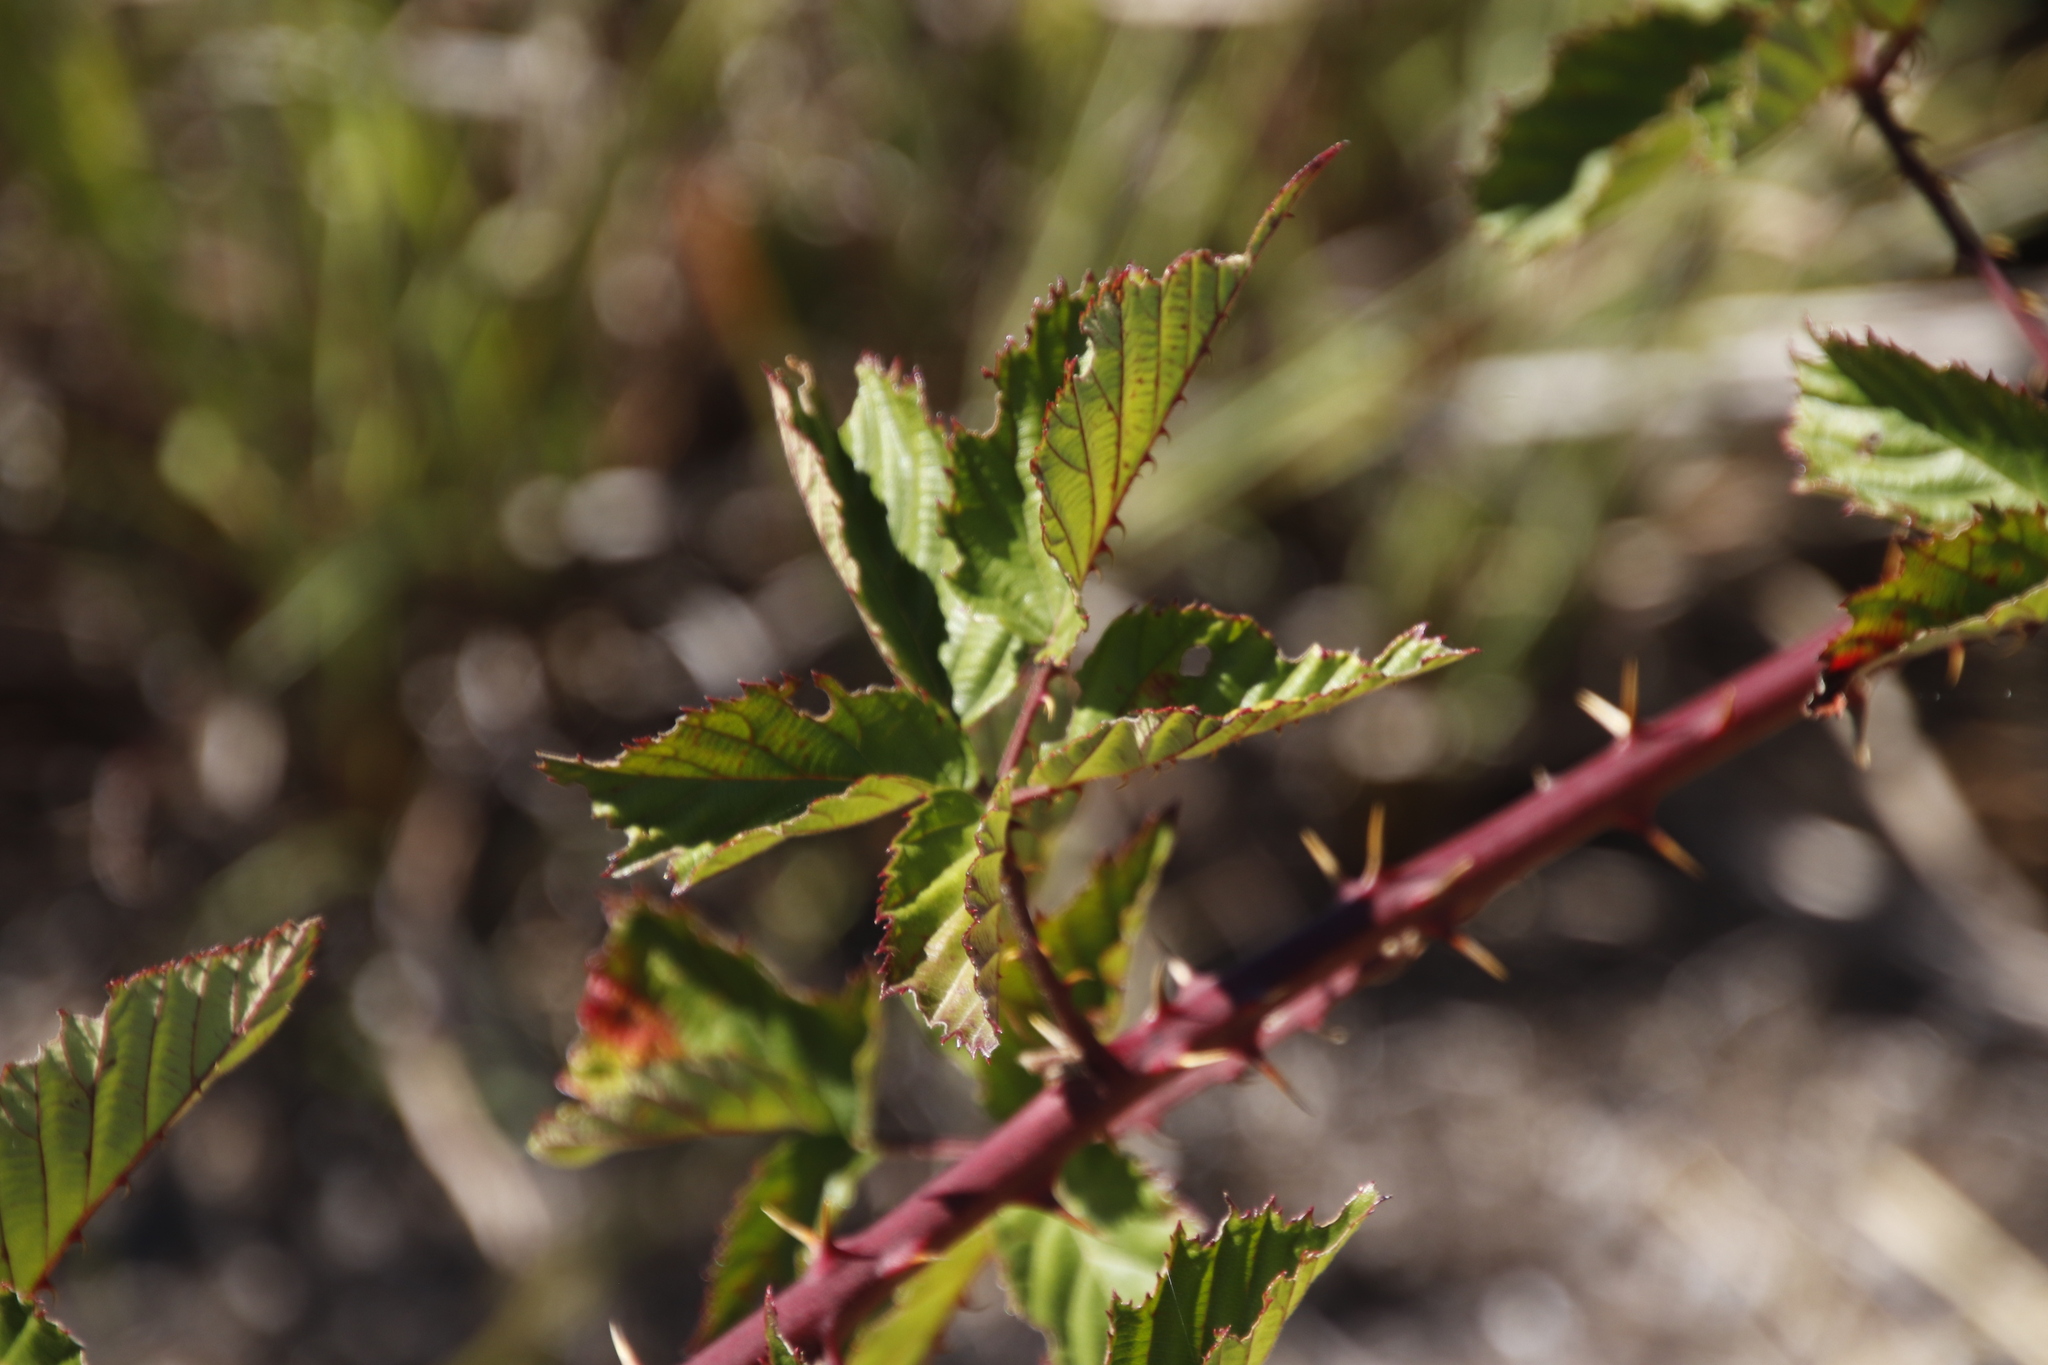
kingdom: Plantae
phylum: Tracheophyta
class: Magnoliopsida
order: Rosales
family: Rosaceae
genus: Rubus
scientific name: Rubus affinis
